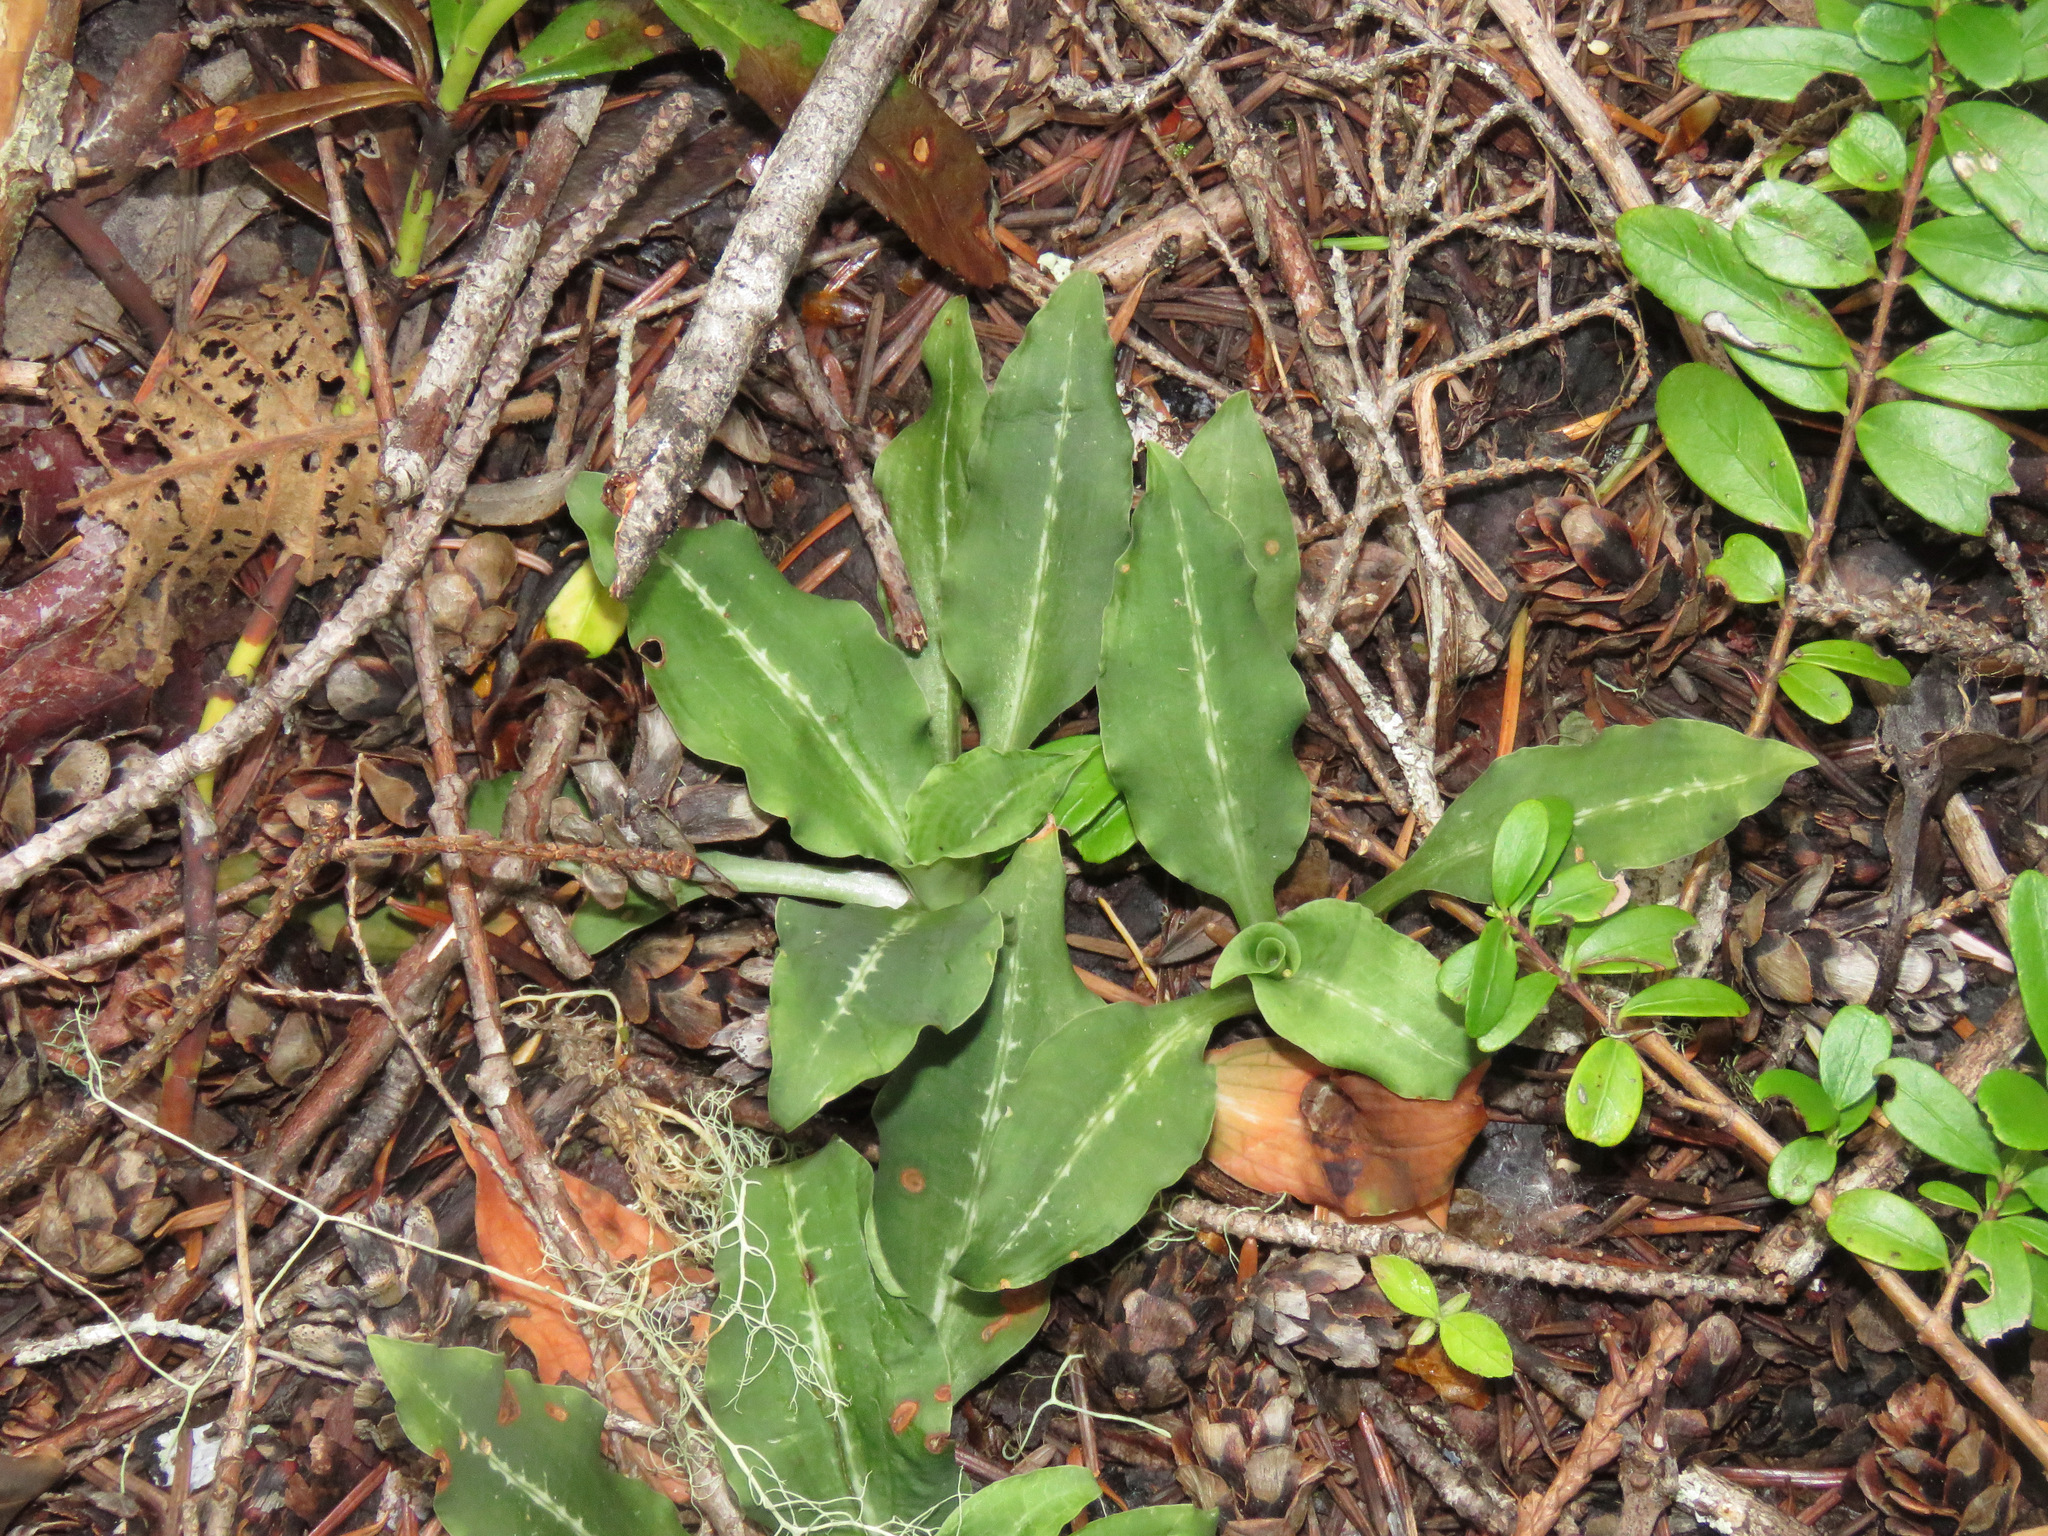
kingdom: Plantae
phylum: Tracheophyta
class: Liliopsida
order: Asparagales
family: Orchidaceae
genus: Goodyera
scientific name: Goodyera oblongifolia
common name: Giant rattlesnake-plantain
